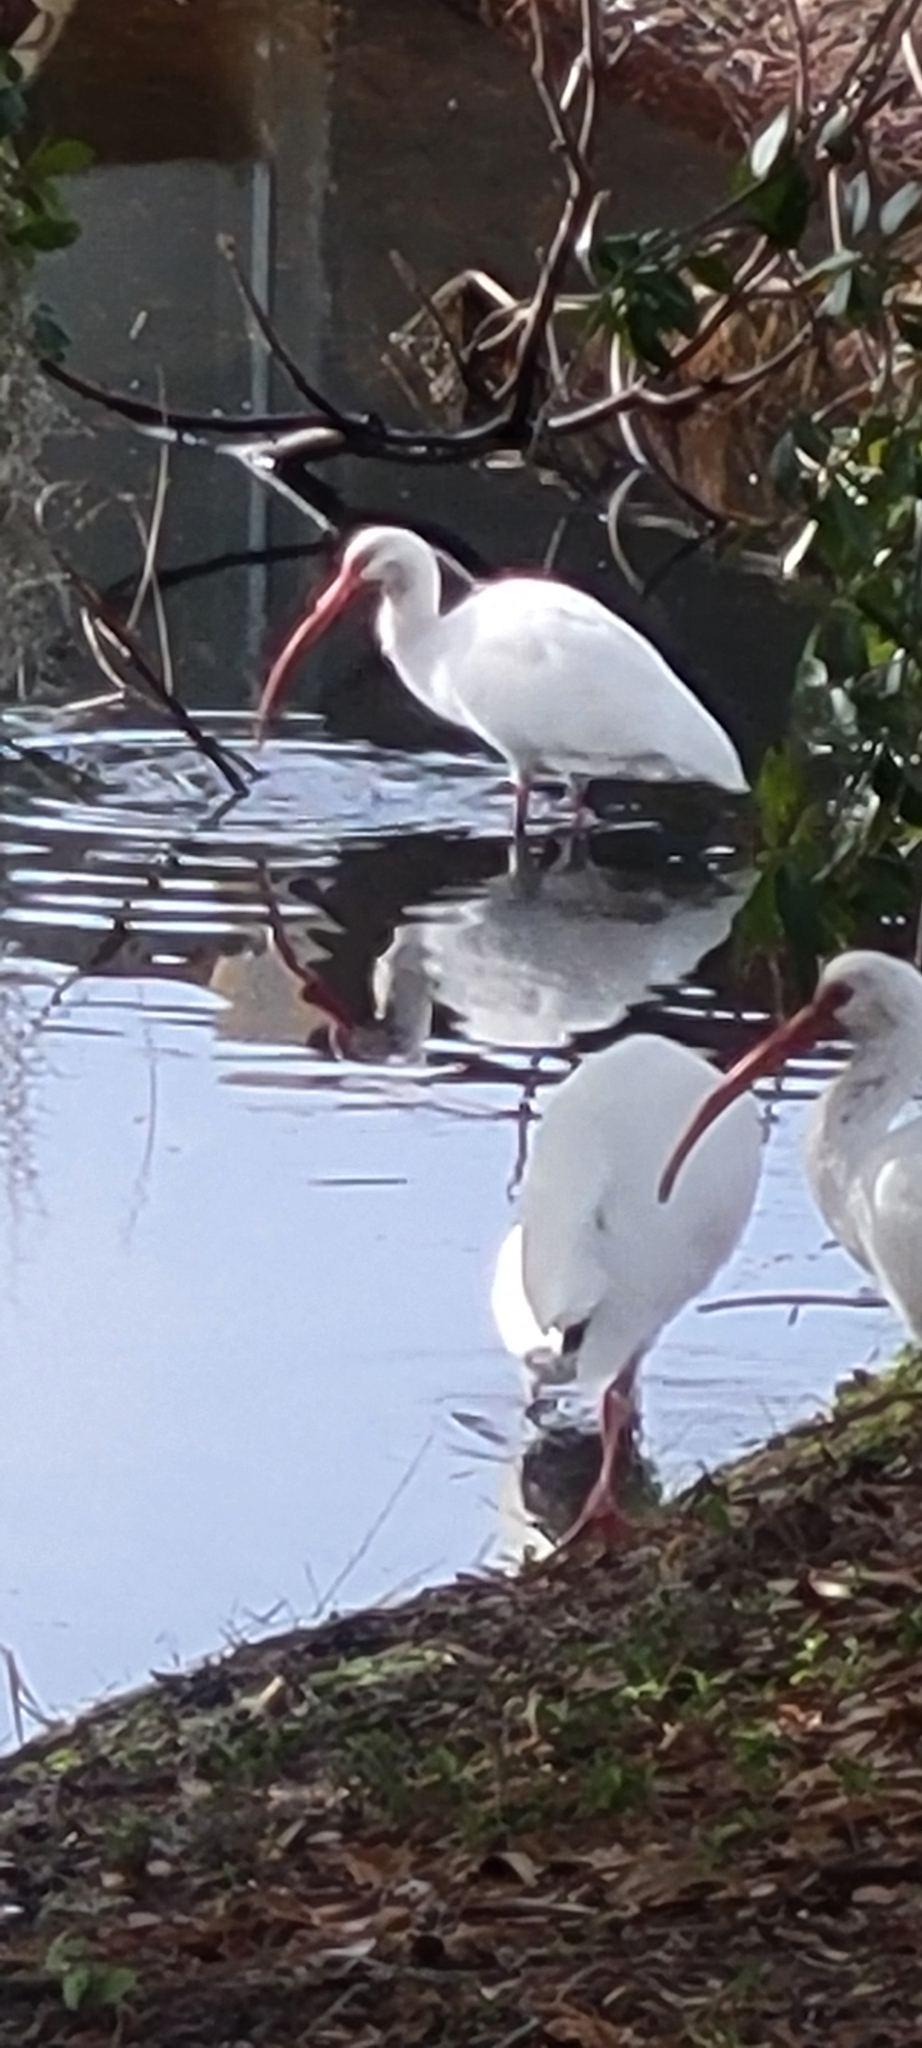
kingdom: Animalia
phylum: Chordata
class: Aves
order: Pelecaniformes
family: Threskiornithidae
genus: Eudocimus
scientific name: Eudocimus albus
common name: White ibis
